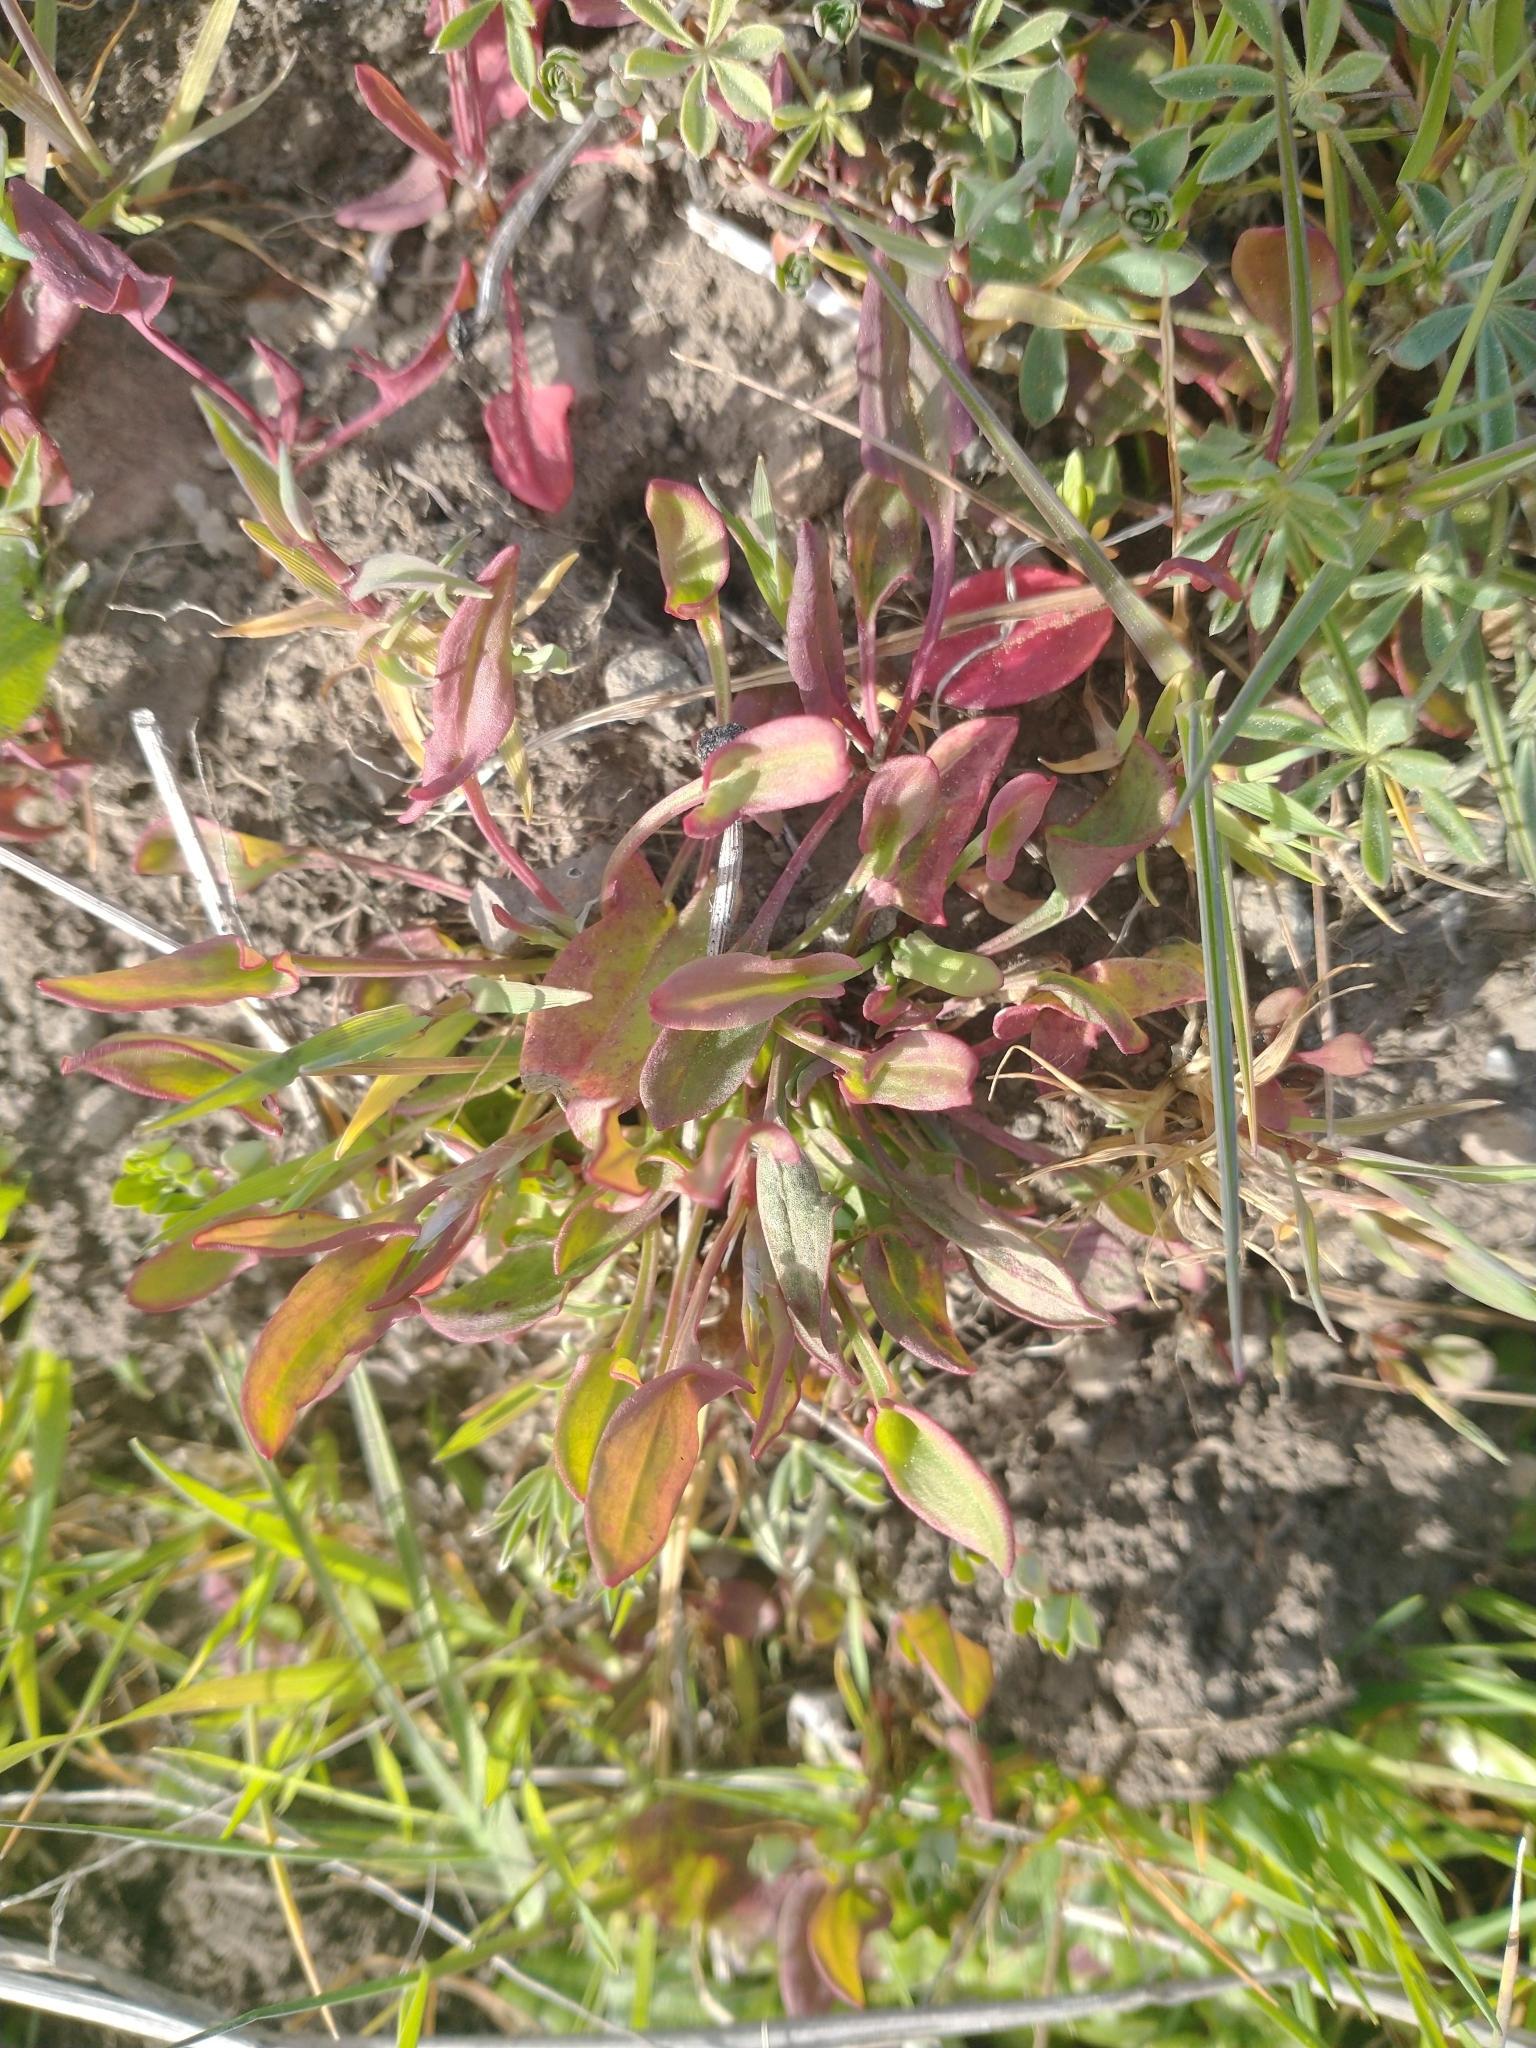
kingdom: Plantae
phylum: Tracheophyta
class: Magnoliopsida
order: Caryophyllales
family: Polygonaceae
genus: Rumex
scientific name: Rumex acetosella
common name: Common sheep sorrel
